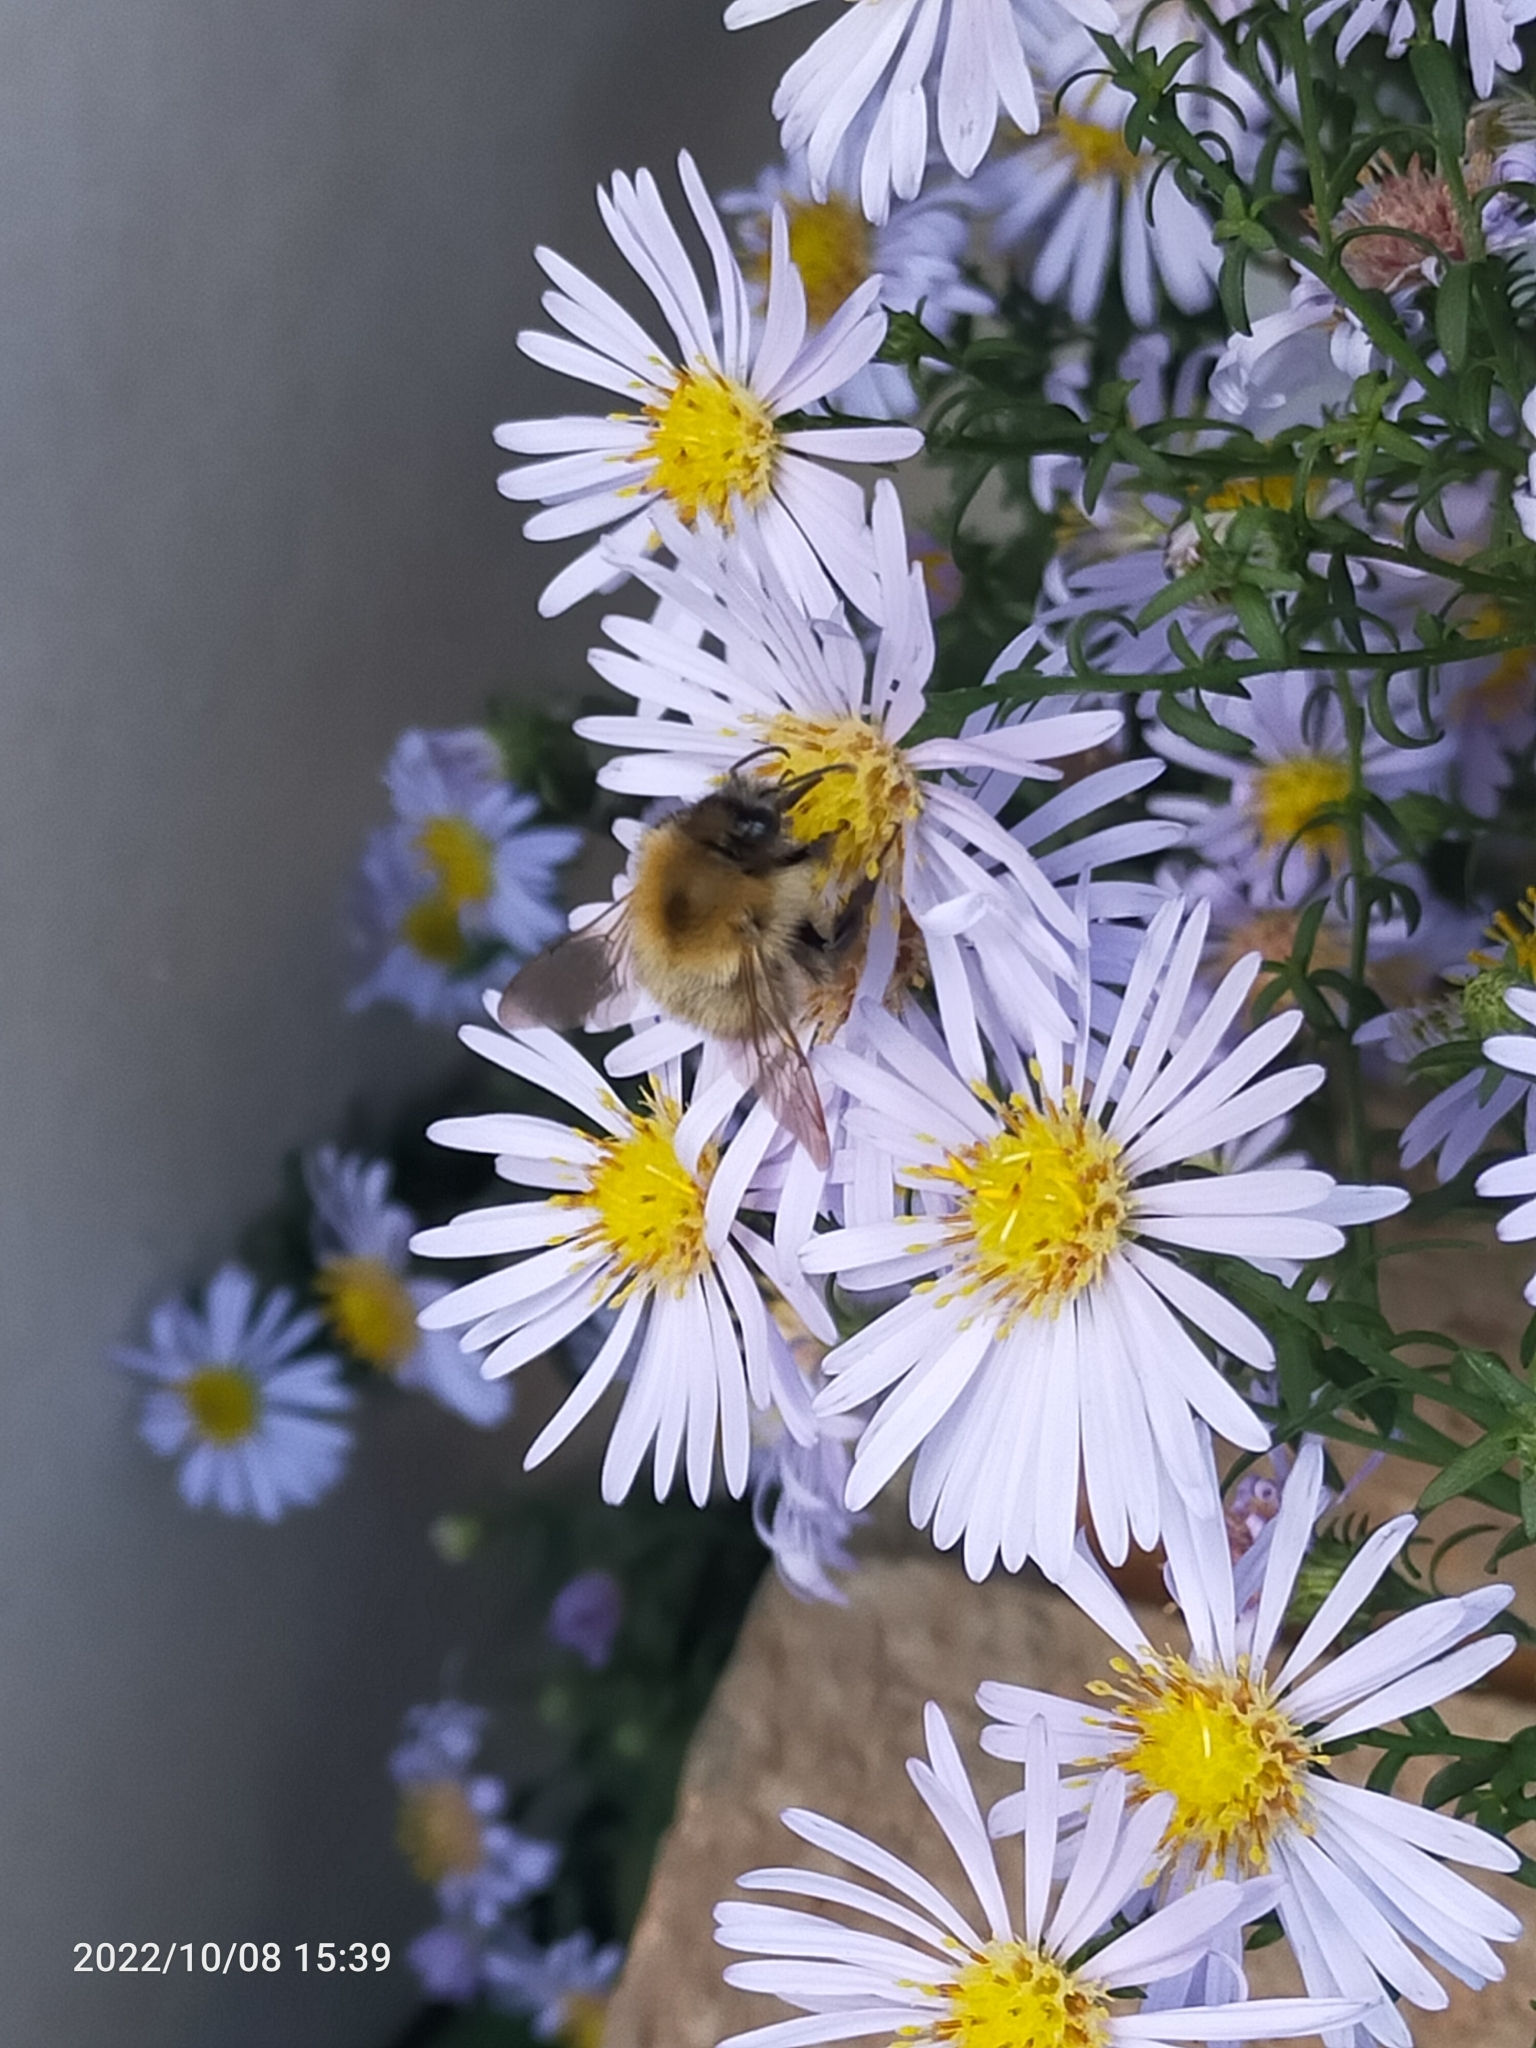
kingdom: Animalia
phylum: Arthropoda
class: Insecta
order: Hymenoptera
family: Apidae
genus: Bombus
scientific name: Bombus pascuorum
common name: Common carder bee
